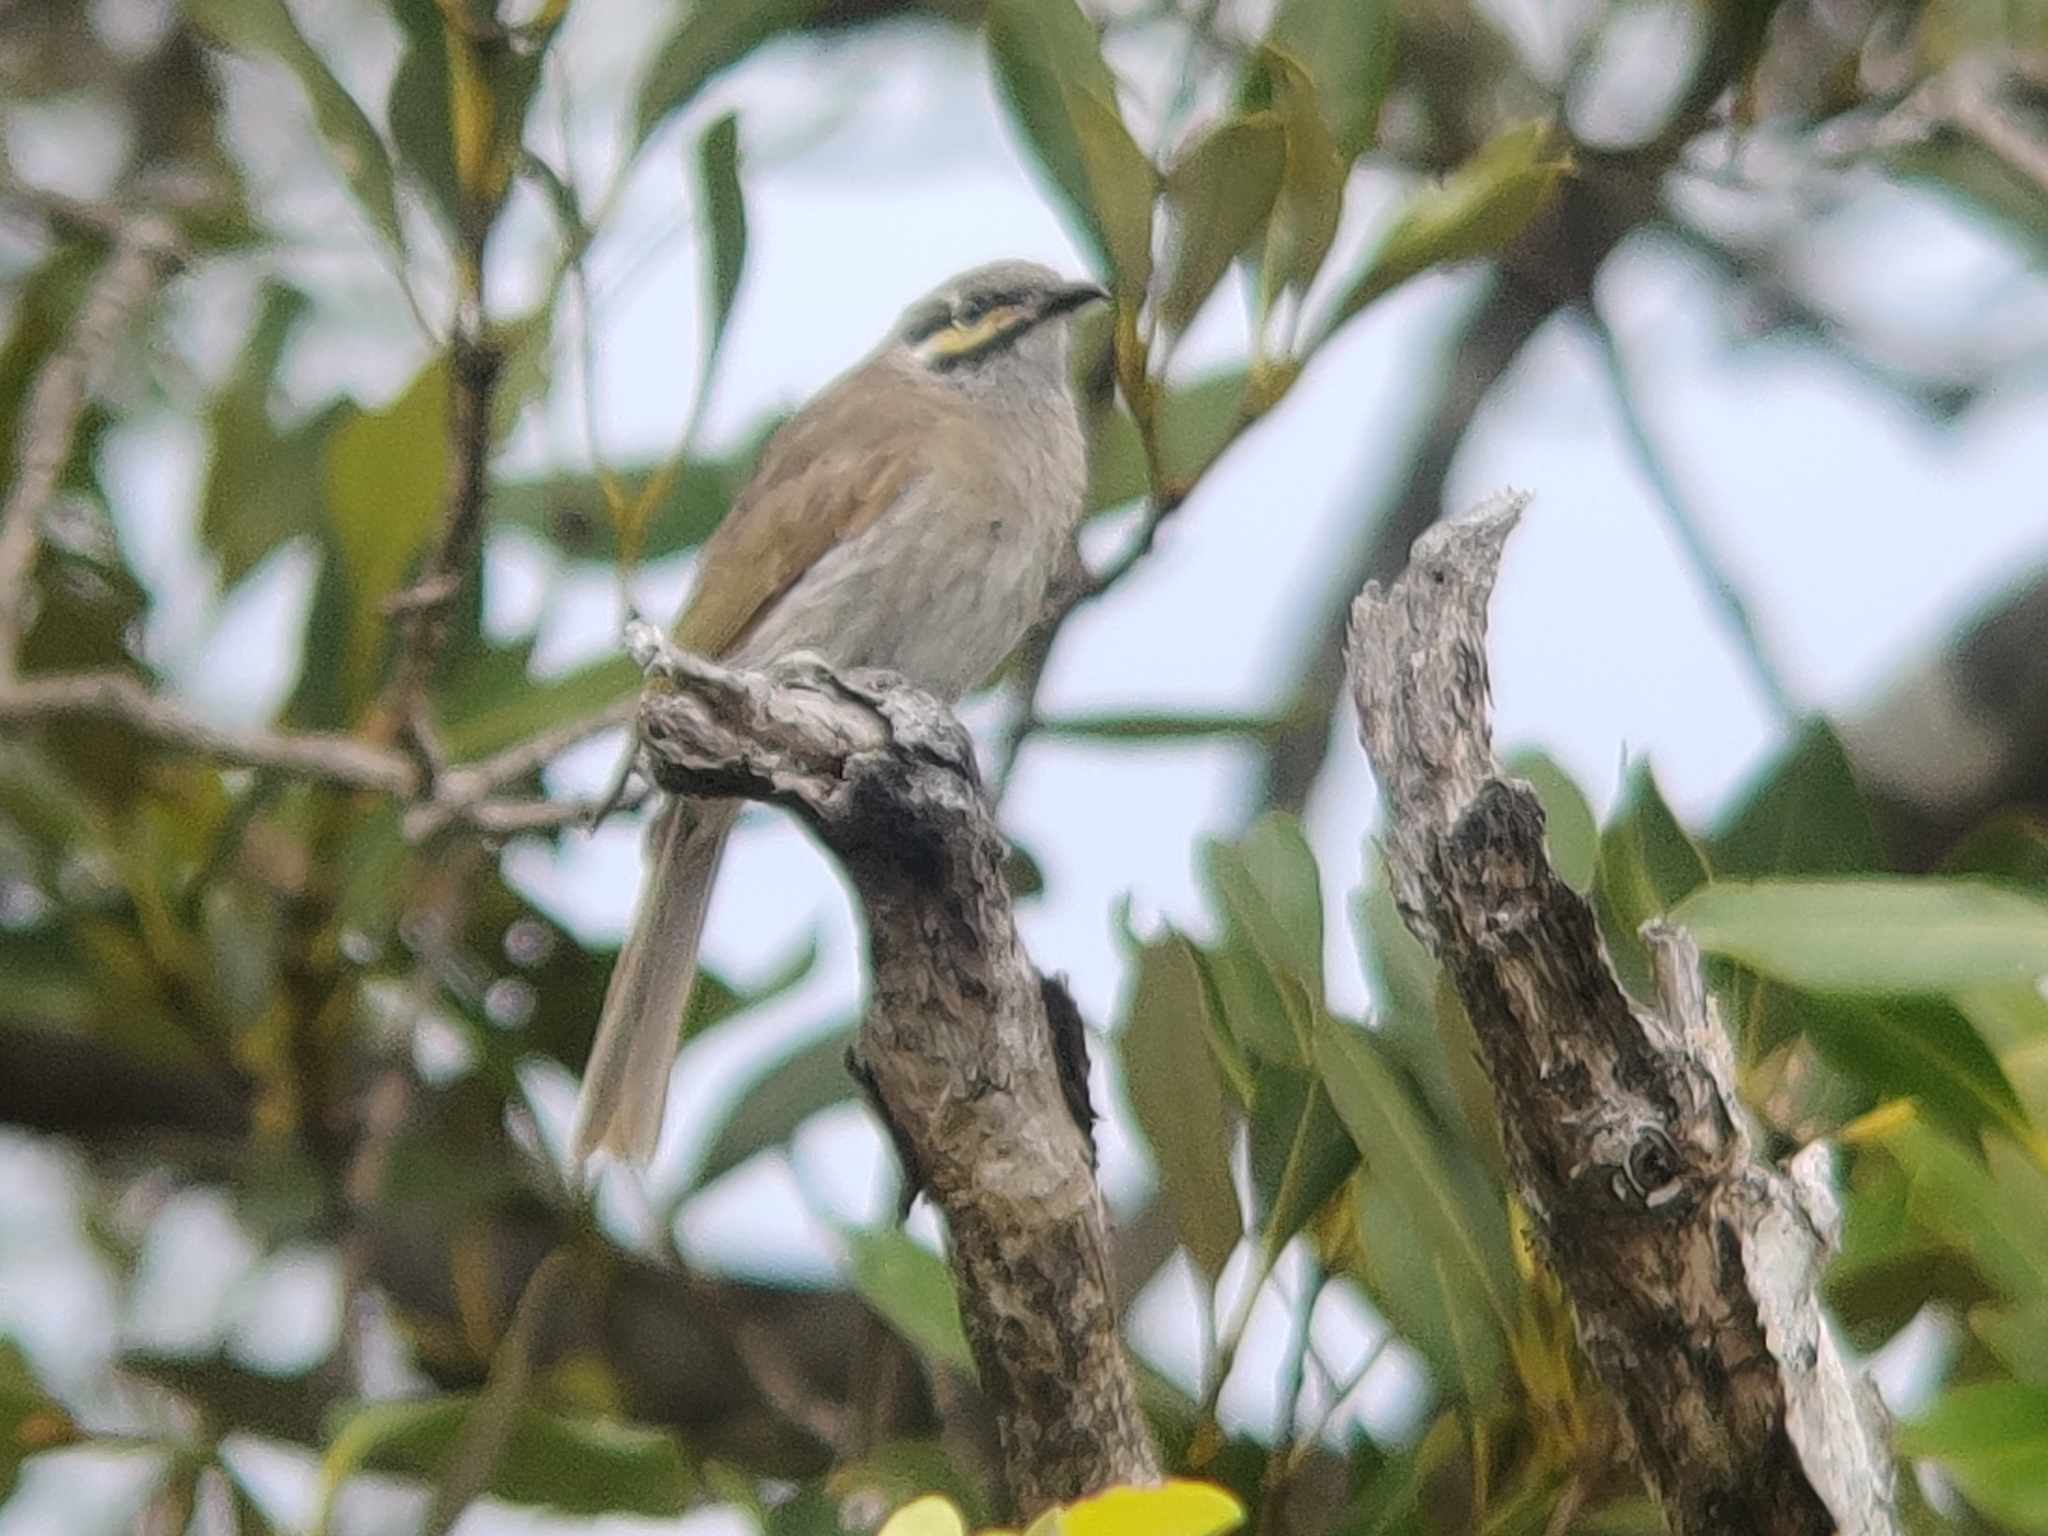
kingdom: Animalia
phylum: Chordata
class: Aves
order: Passeriformes
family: Meliphagidae
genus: Caligavis
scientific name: Caligavis chrysops
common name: Yellow-faced honeyeater
